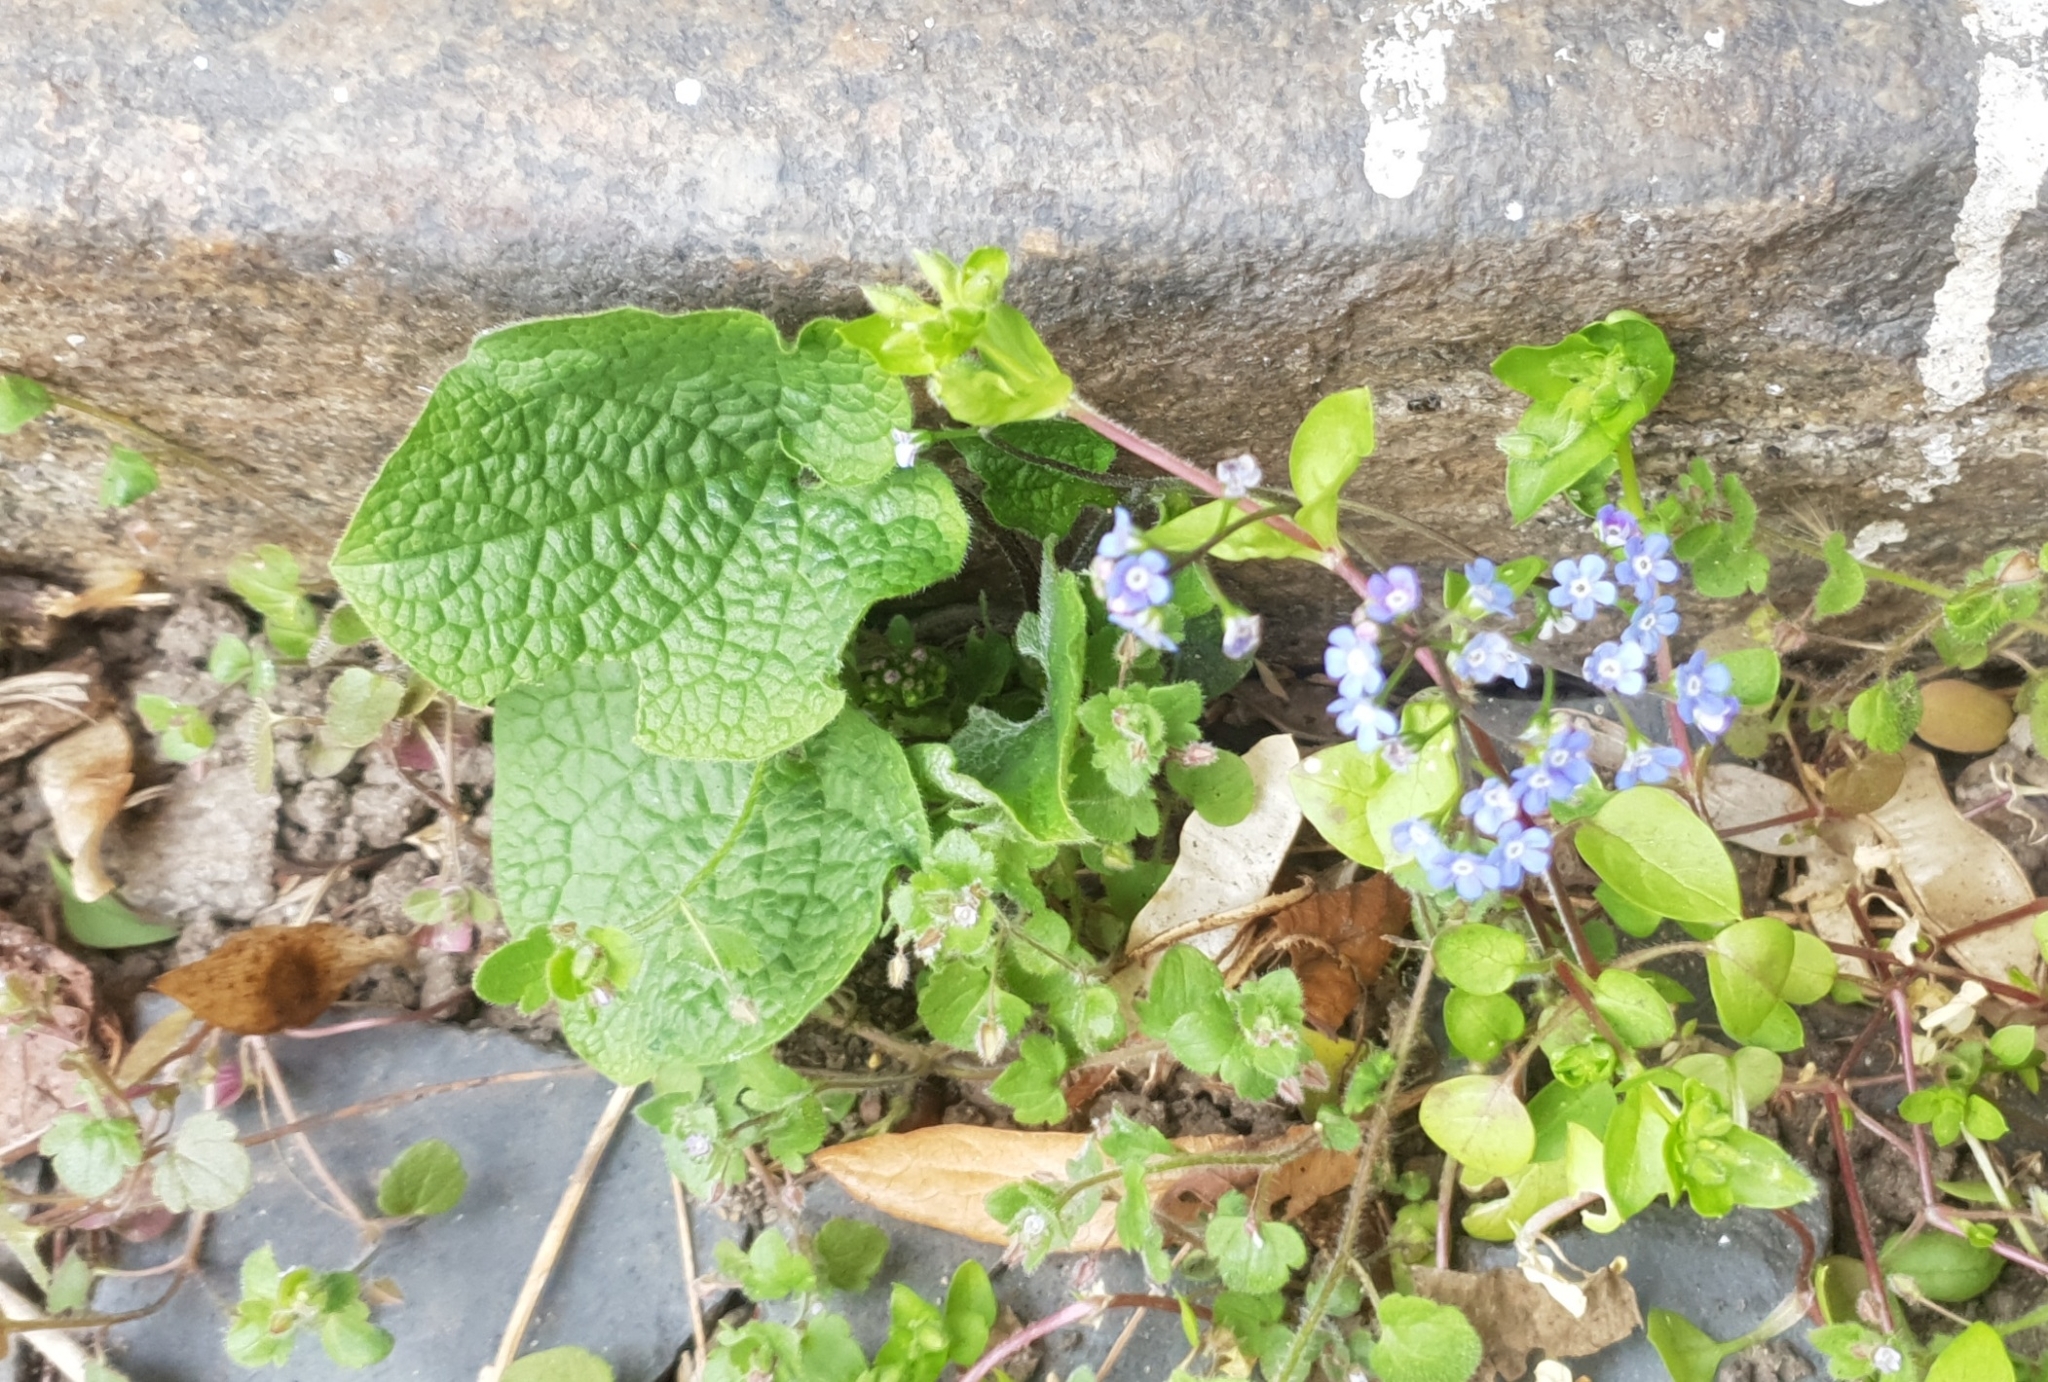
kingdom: Plantae
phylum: Tracheophyta
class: Magnoliopsida
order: Boraginales
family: Boraginaceae
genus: Brunnera
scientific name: Brunnera macrophylla
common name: Great forget-me-not
